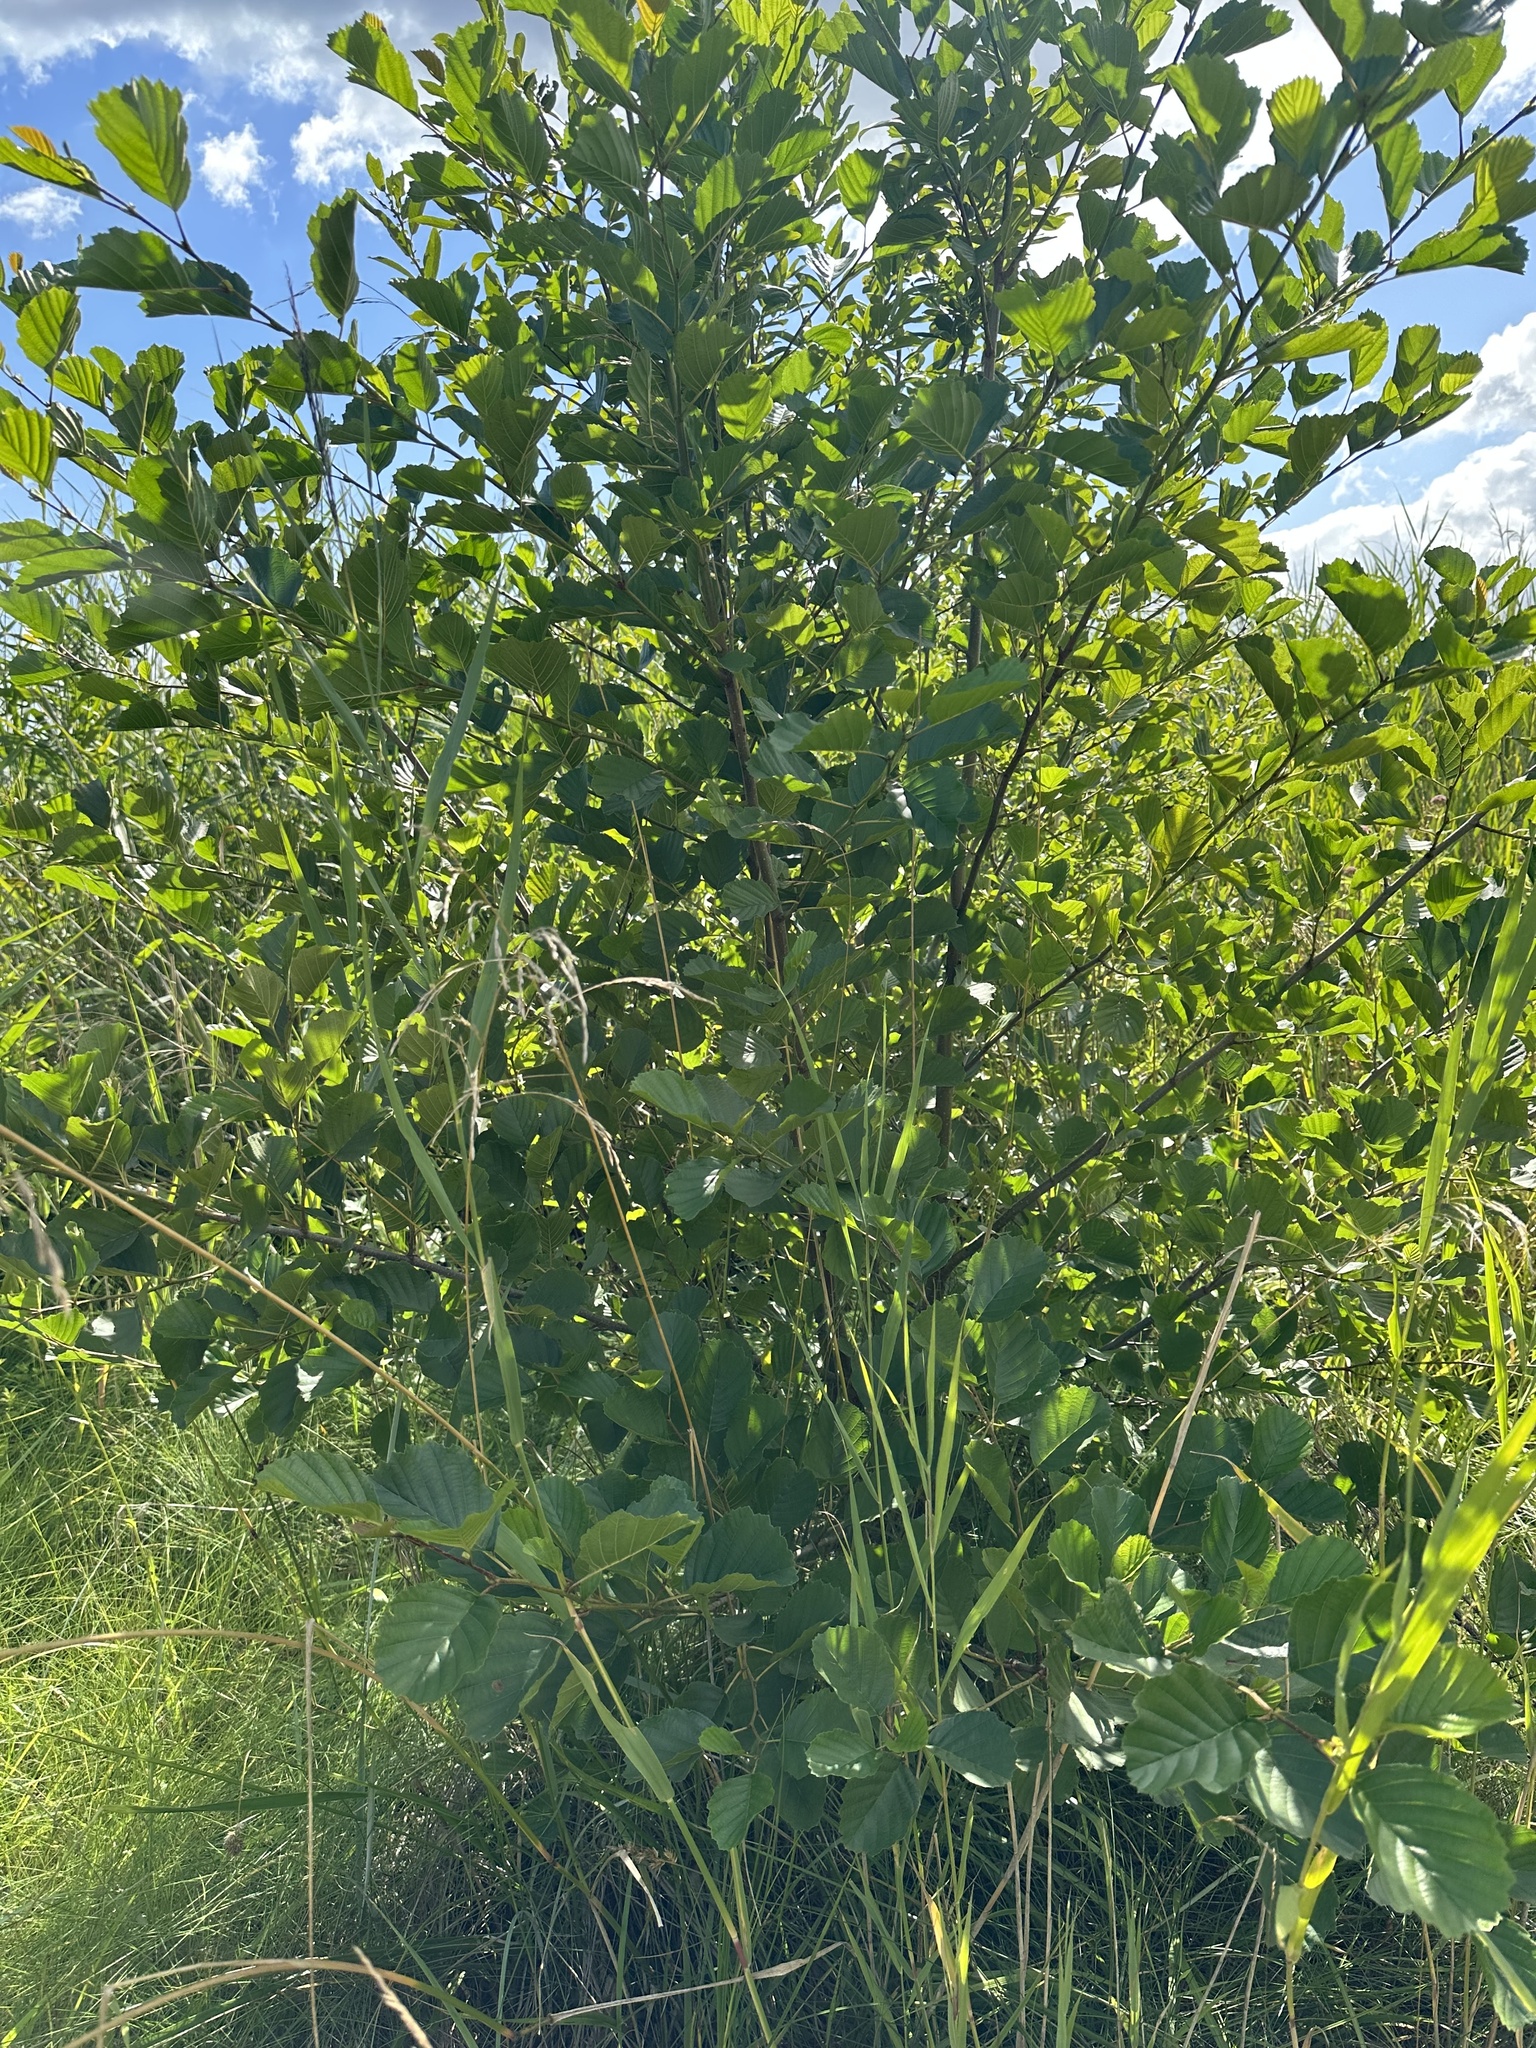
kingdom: Plantae
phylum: Tracheophyta
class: Magnoliopsida
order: Fagales
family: Betulaceae
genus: Alnus
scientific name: Alnus glutinosa
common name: Black alder
